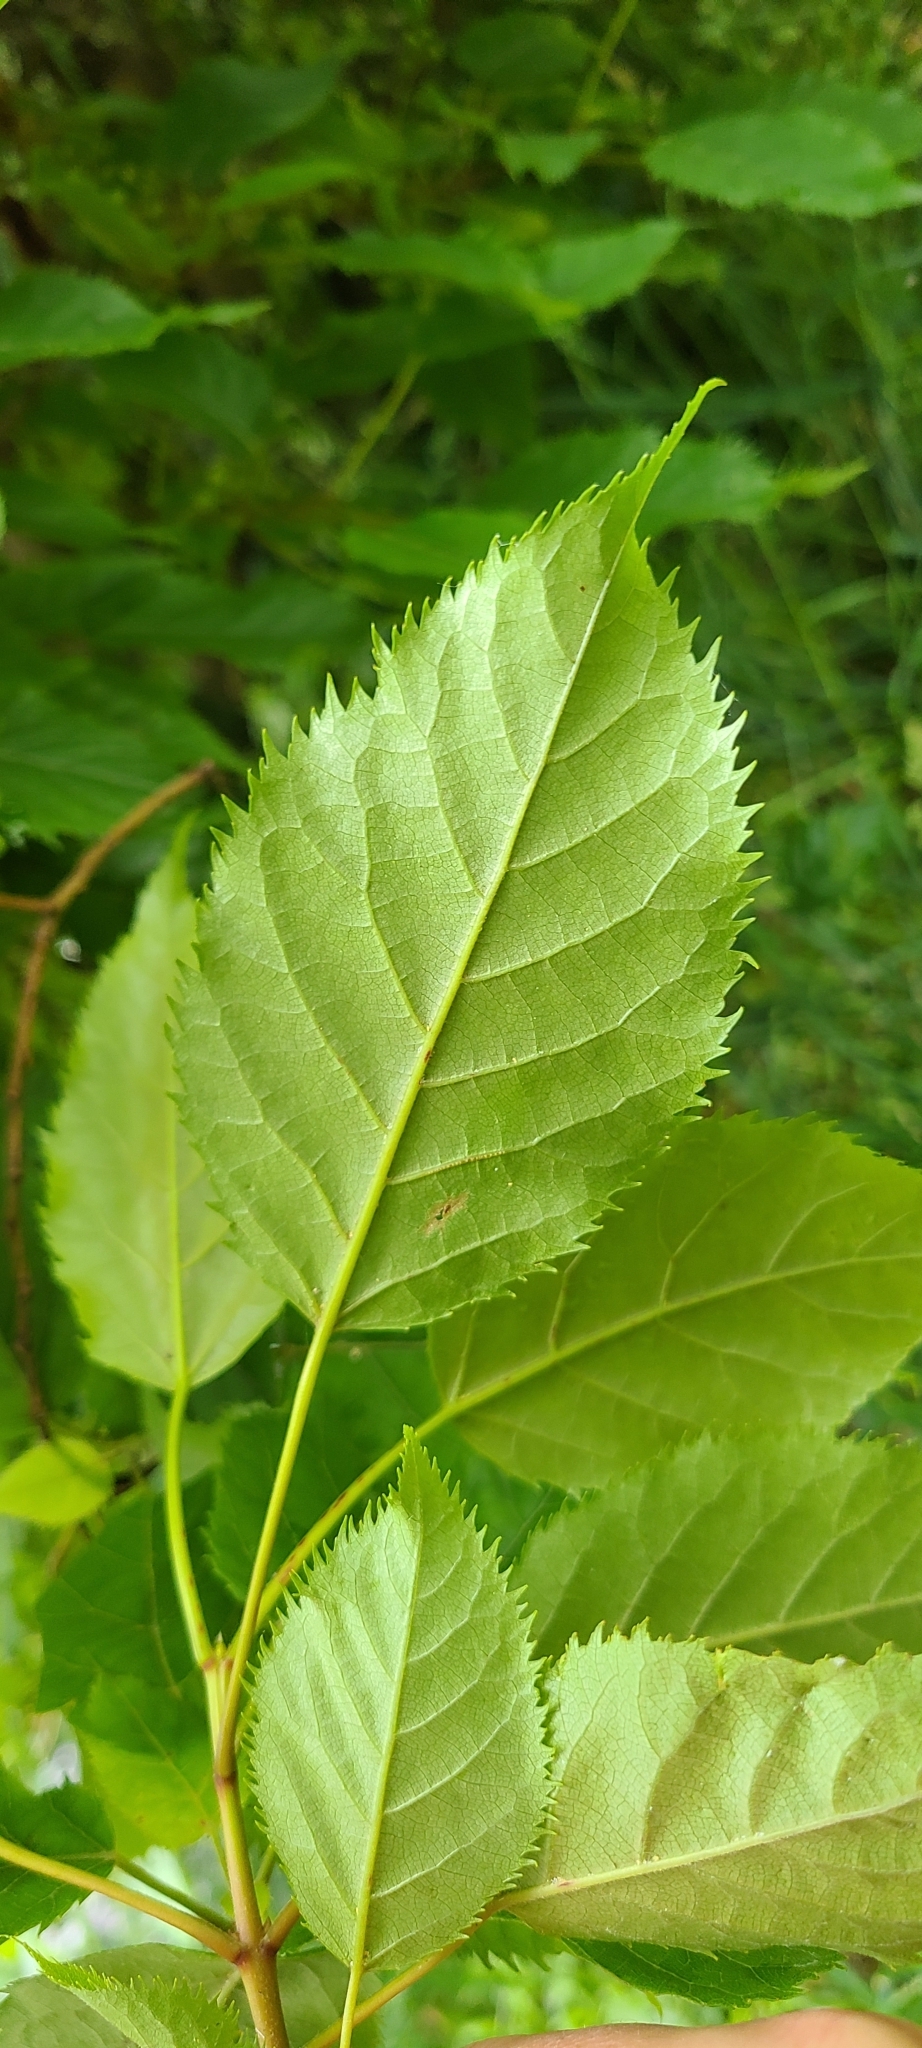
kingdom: Plantae
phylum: Tracheophyta
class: Magnoliopsida
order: Oxalidales
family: Elaeocarpaceae
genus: Aristotelia
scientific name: Aristotelia serrata
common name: New zealand wineberry
